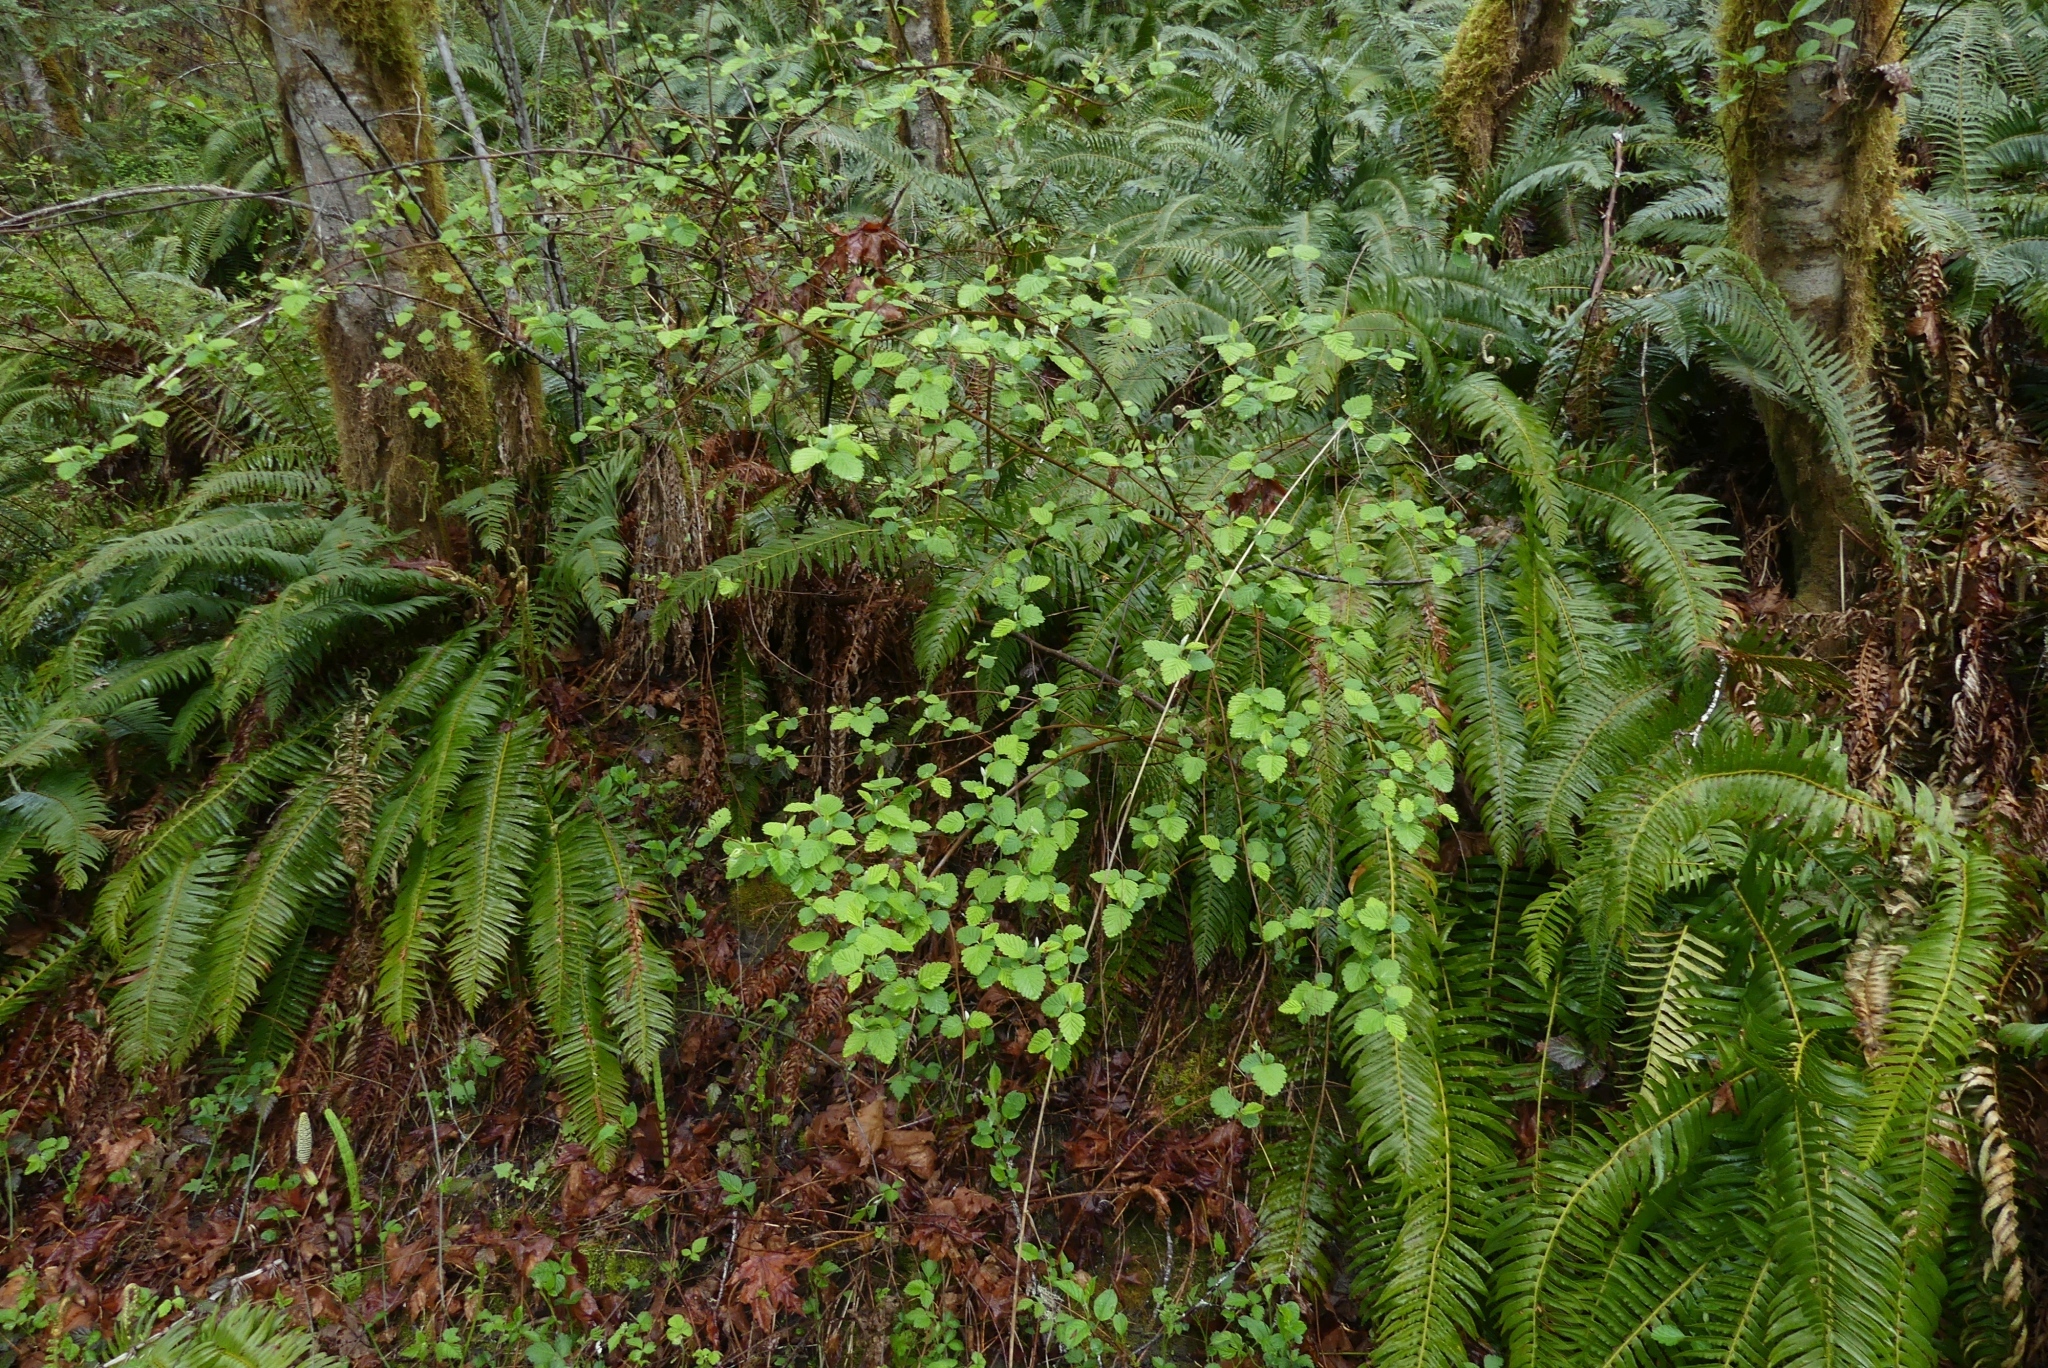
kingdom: Plantae
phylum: Tracheophyta
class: Magnoliopsida
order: Rosales
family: Rosaceae
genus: Holodiscus
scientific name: Holodiscus discolor
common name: Oceanspray
